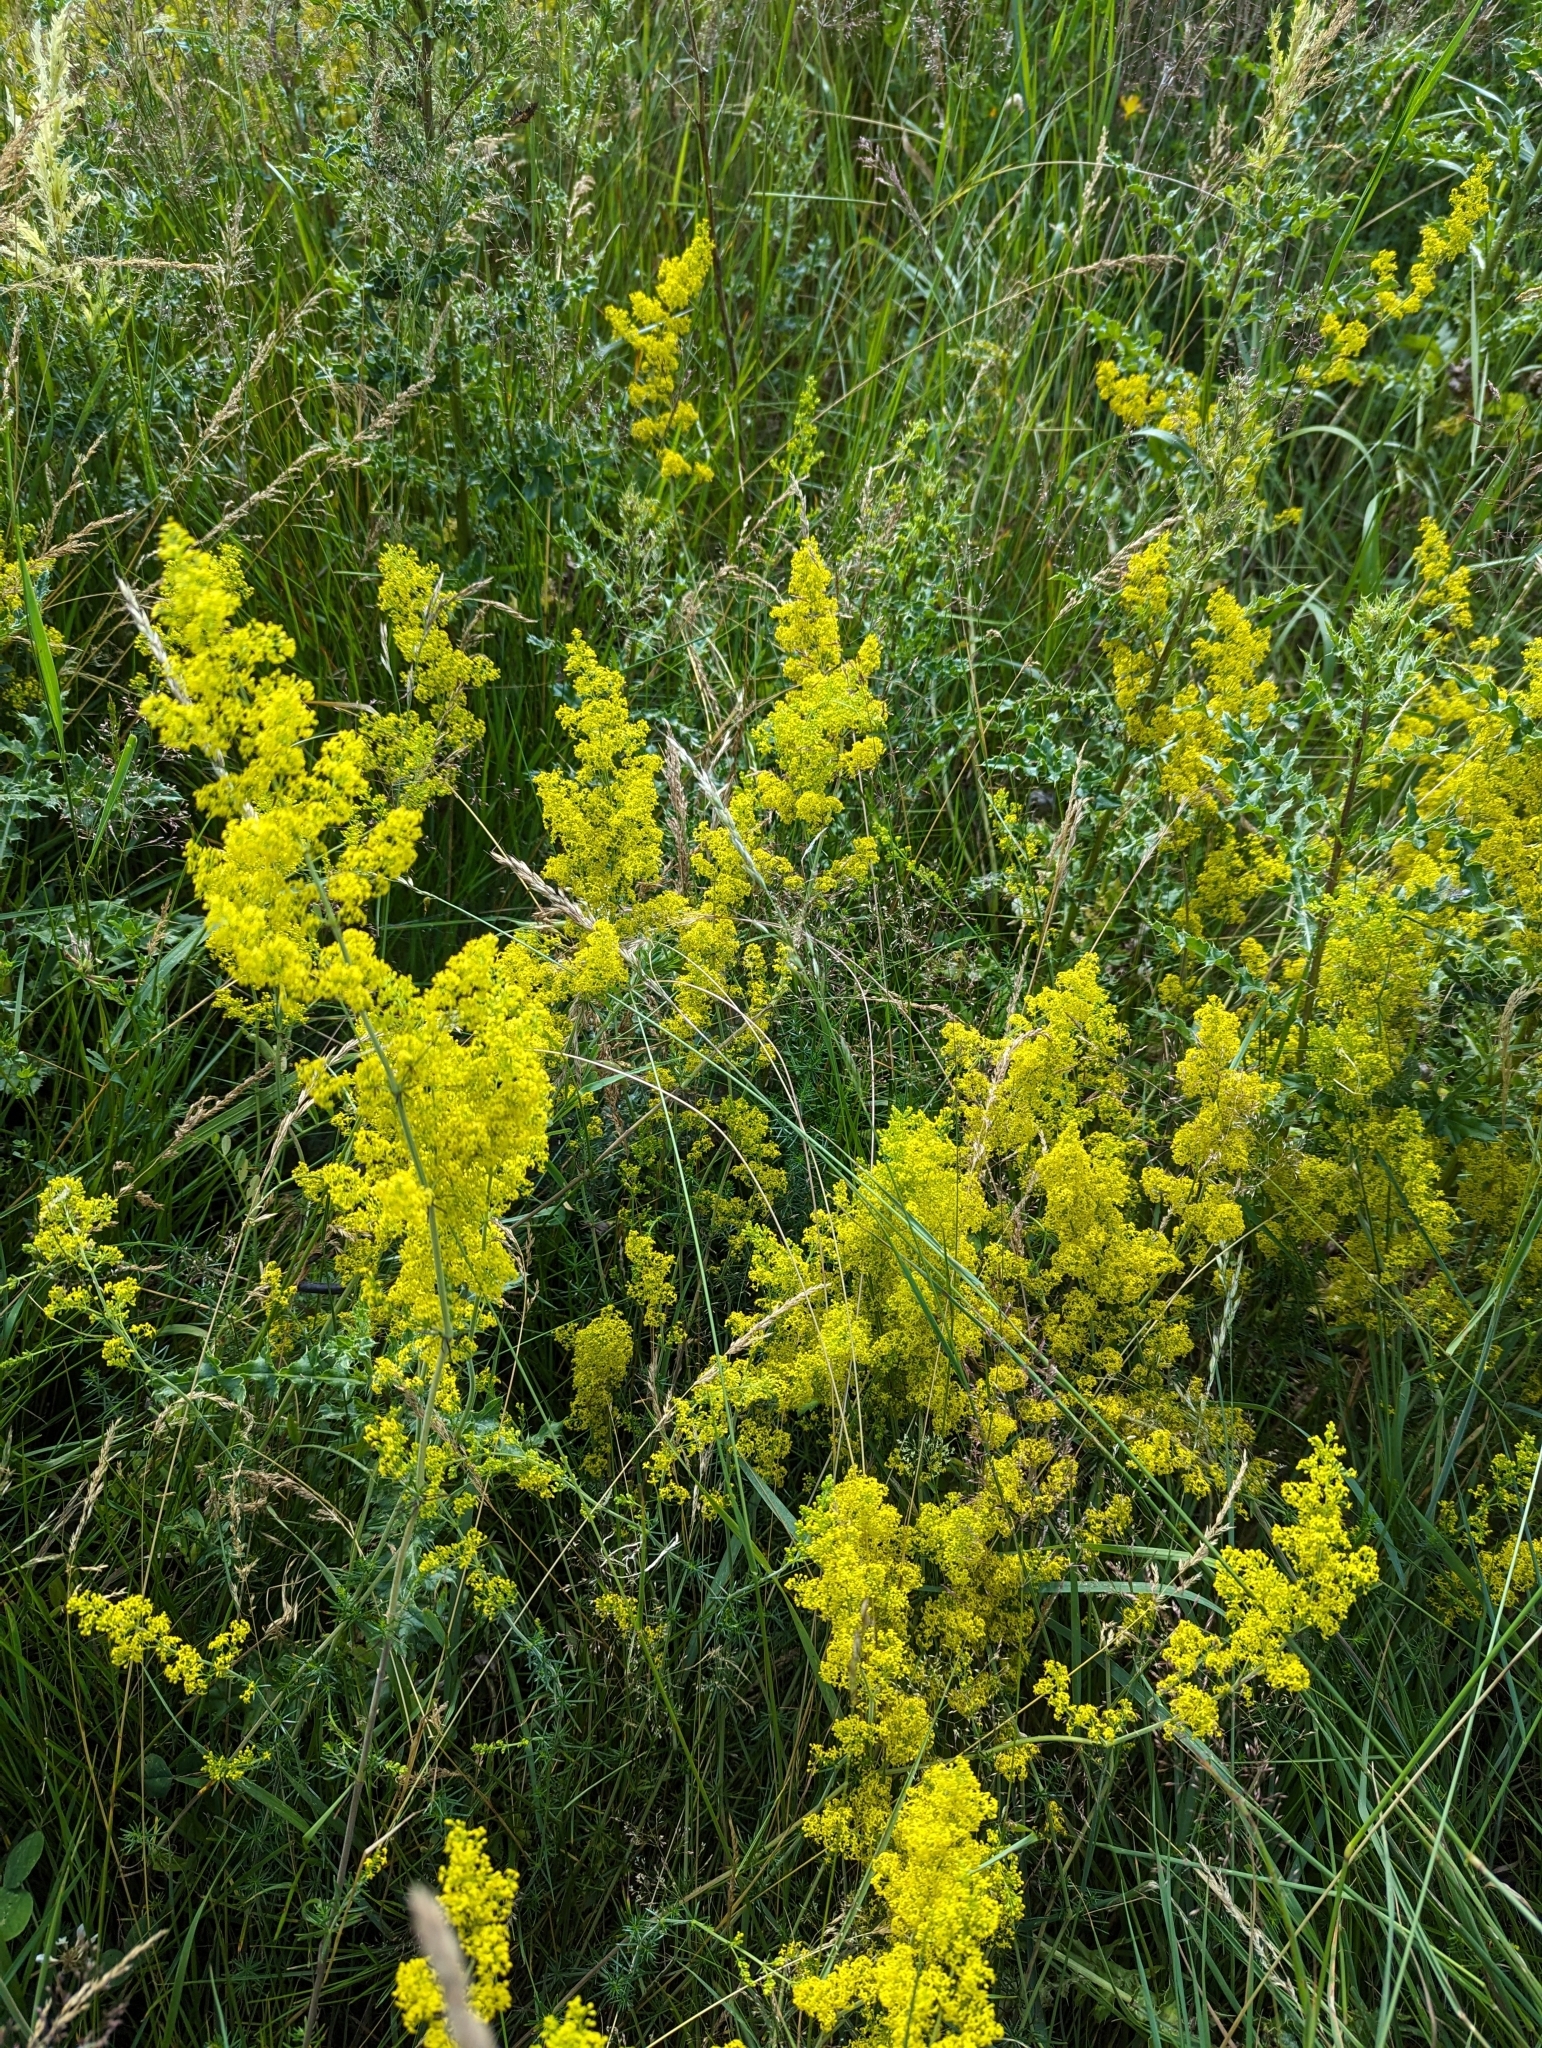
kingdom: Plantae
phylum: Tracheophyta
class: Magnoliopsida
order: Gentianales
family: Rubiaceae
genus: Galium
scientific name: Galium verum
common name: Lady's bedstraw
